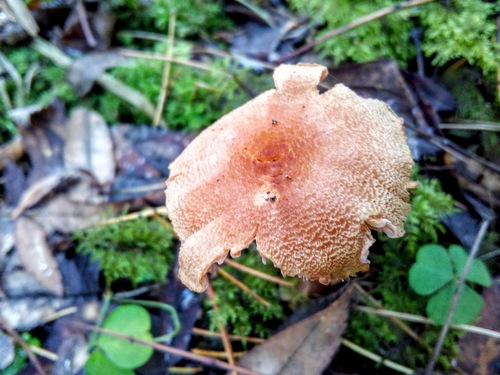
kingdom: Fungi
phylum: Basidiomycota
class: Agaricomycetes
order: Agaricales
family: Hydnangiaceae
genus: Laccaria
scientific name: Laccaria proxima
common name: Scurfy deceiver
